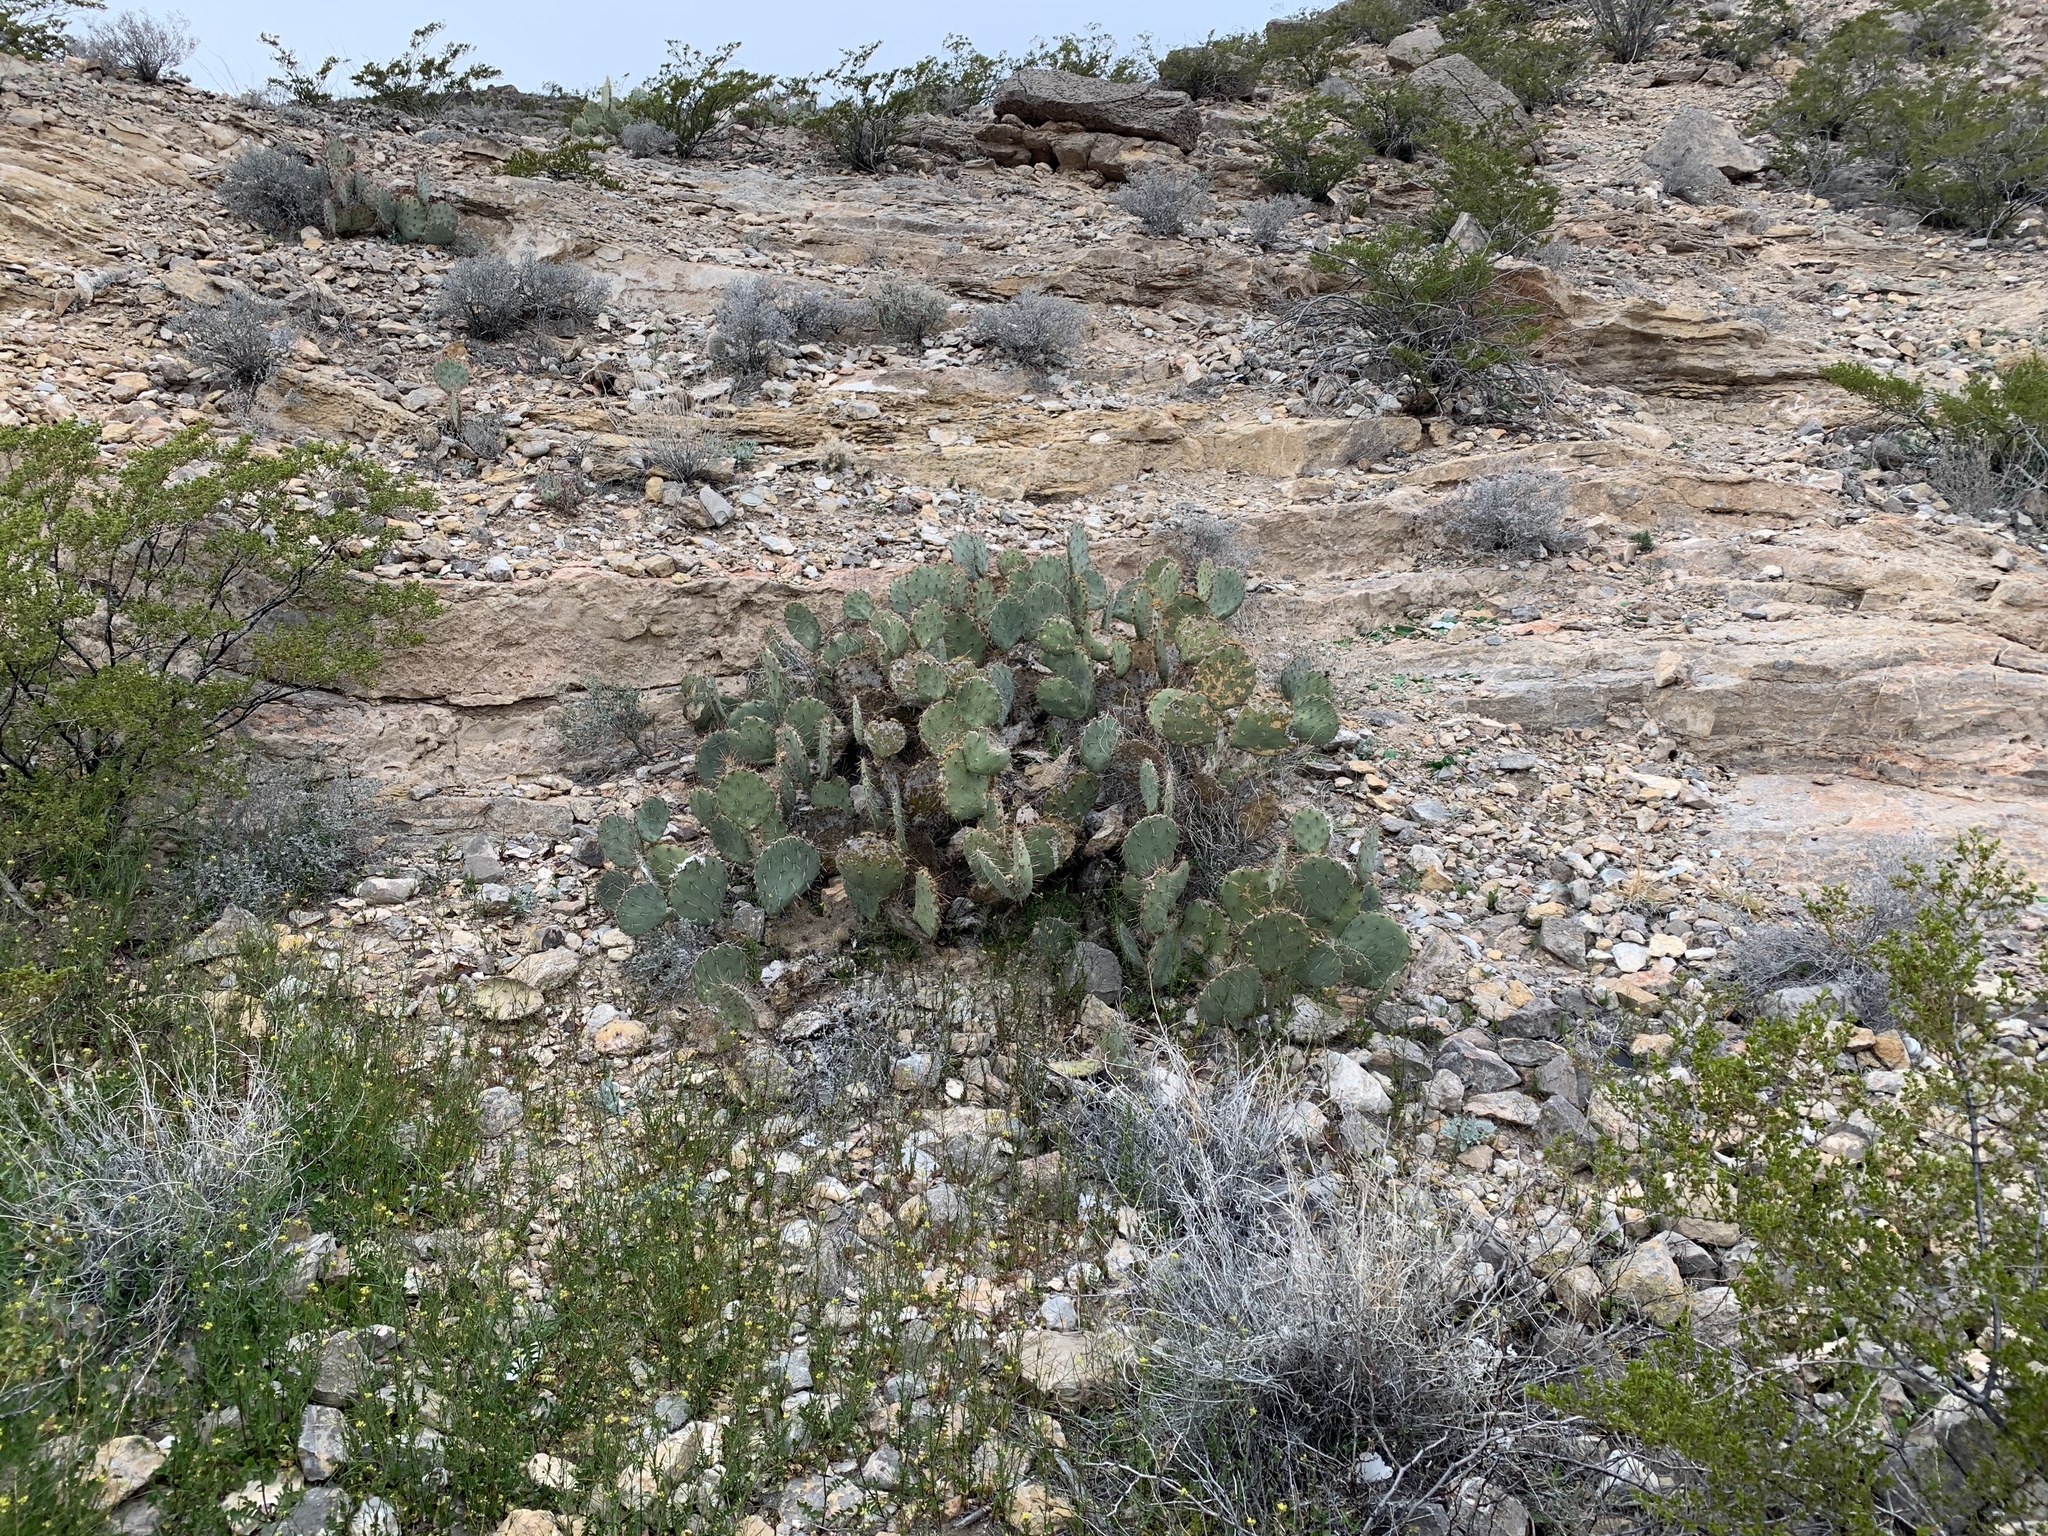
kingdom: Plantae
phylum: Tracheophyta
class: Magnoliopsida
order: Caryophyllales
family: Cactaceae
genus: Opuntia
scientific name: Opuntia phaeacantha
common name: New mexico prickly-pear
